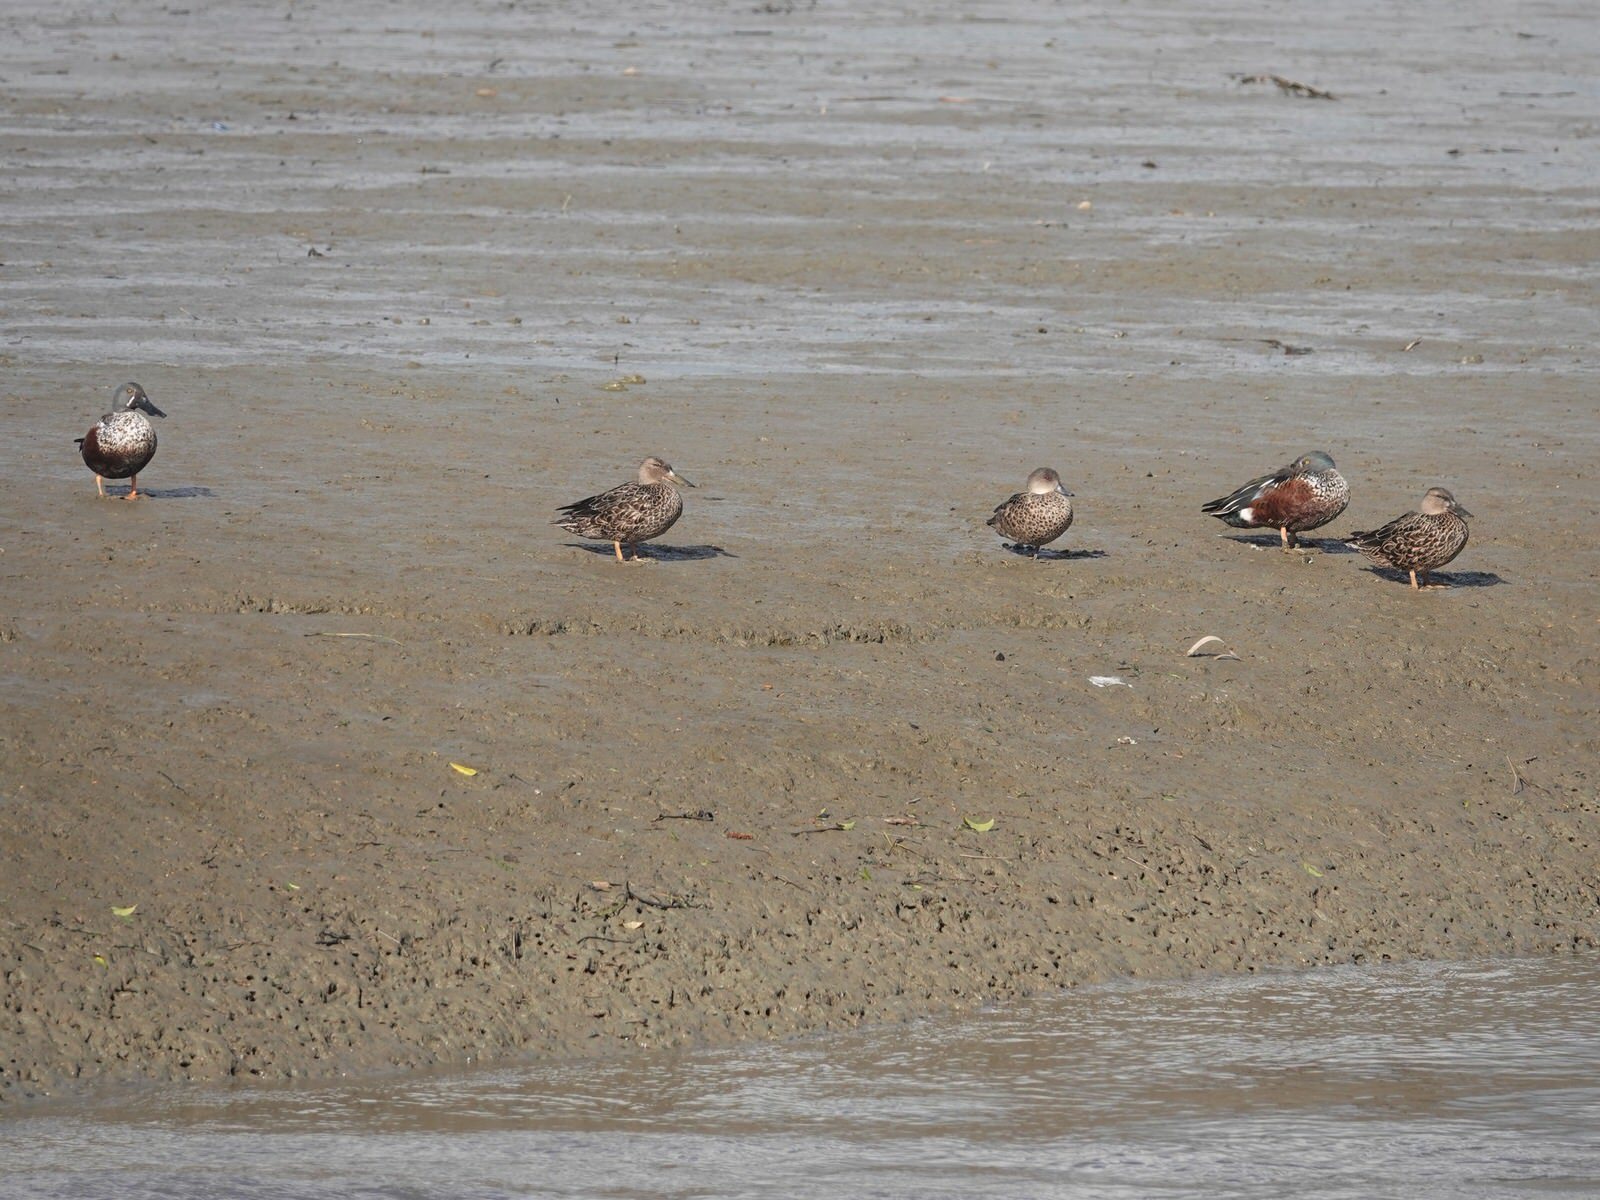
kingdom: Animalia
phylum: Chordata
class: Aves
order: Anseriformes
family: Anatidae
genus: Spatula
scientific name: Spatula rhynchotis
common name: Australian shoveler
